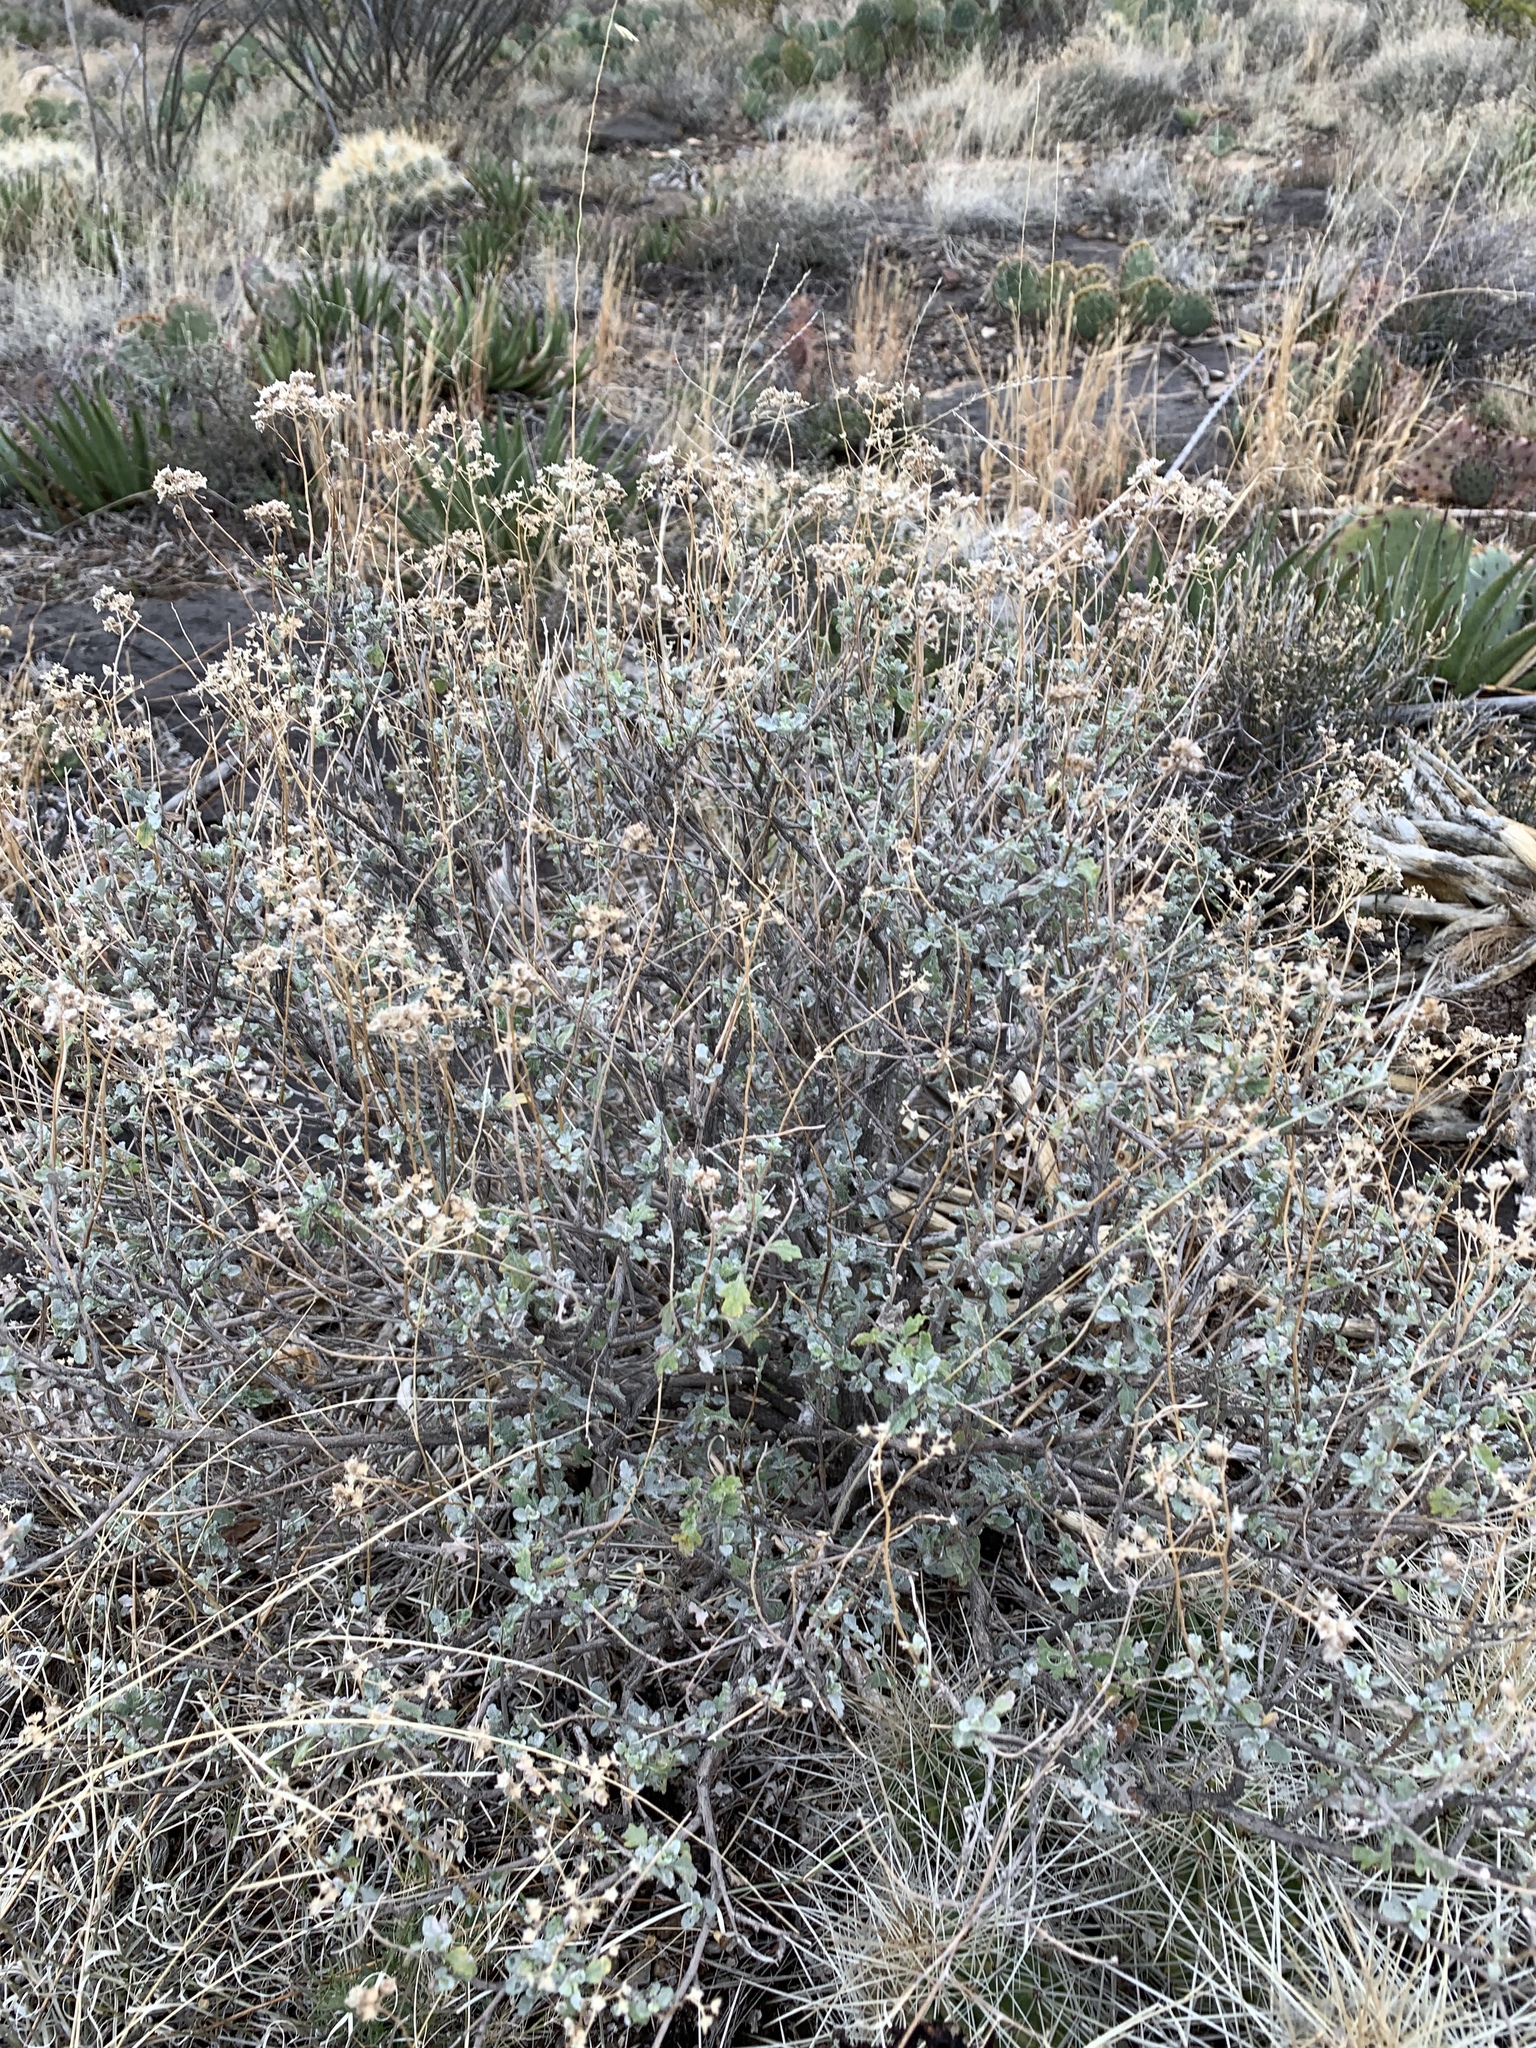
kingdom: Plantae
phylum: Tracheophyta
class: Magnoliopsida
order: Asterales
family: Asteraceae
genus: Parthenium
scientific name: Parthenium incanum
